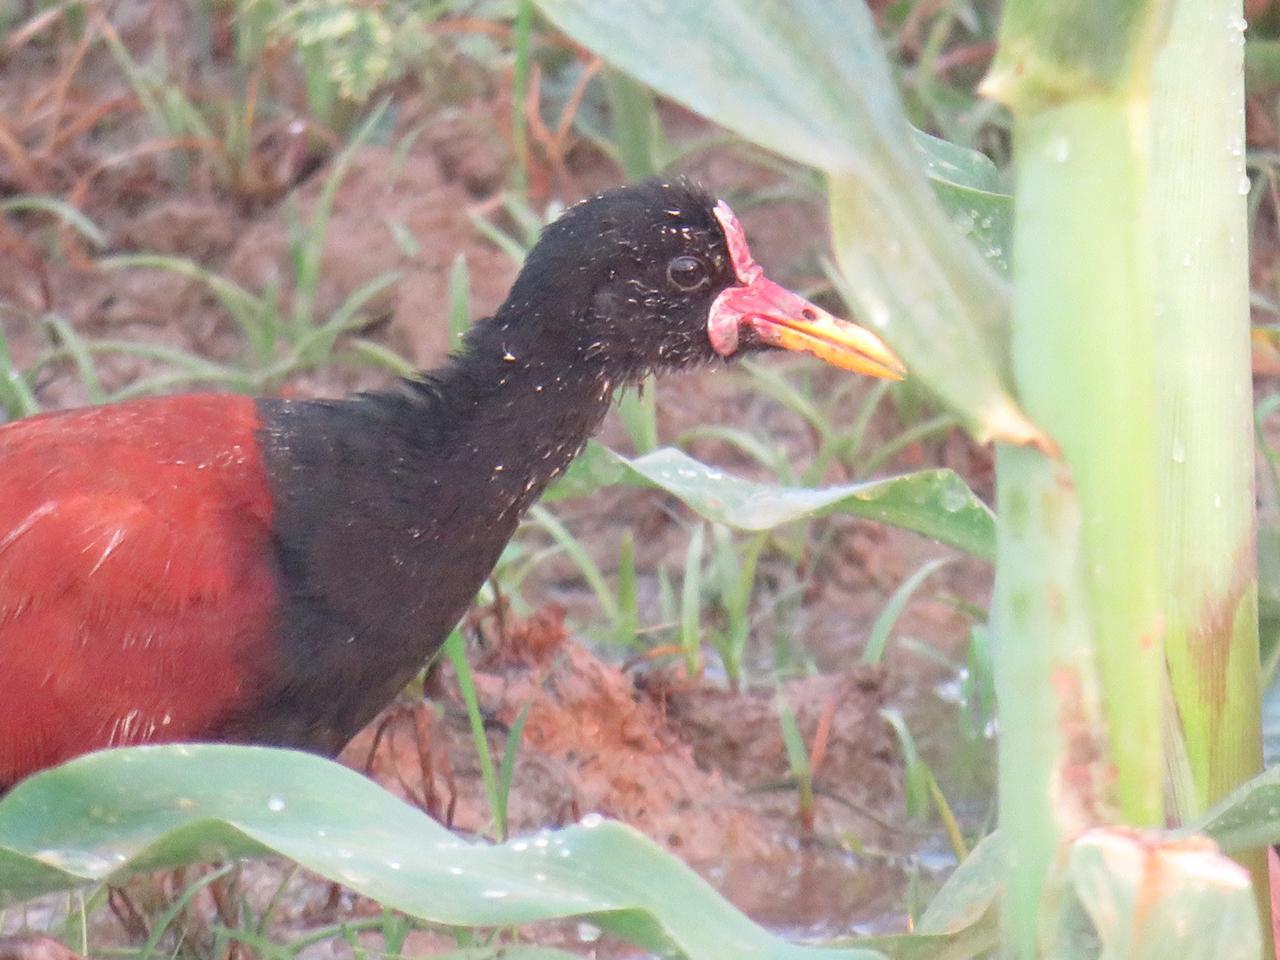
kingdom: Animalia
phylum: Chordata
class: Aves
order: Charadriiformes
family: Jacanidae
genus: Jacana
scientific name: Jacana jacana
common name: Wattled jacana
